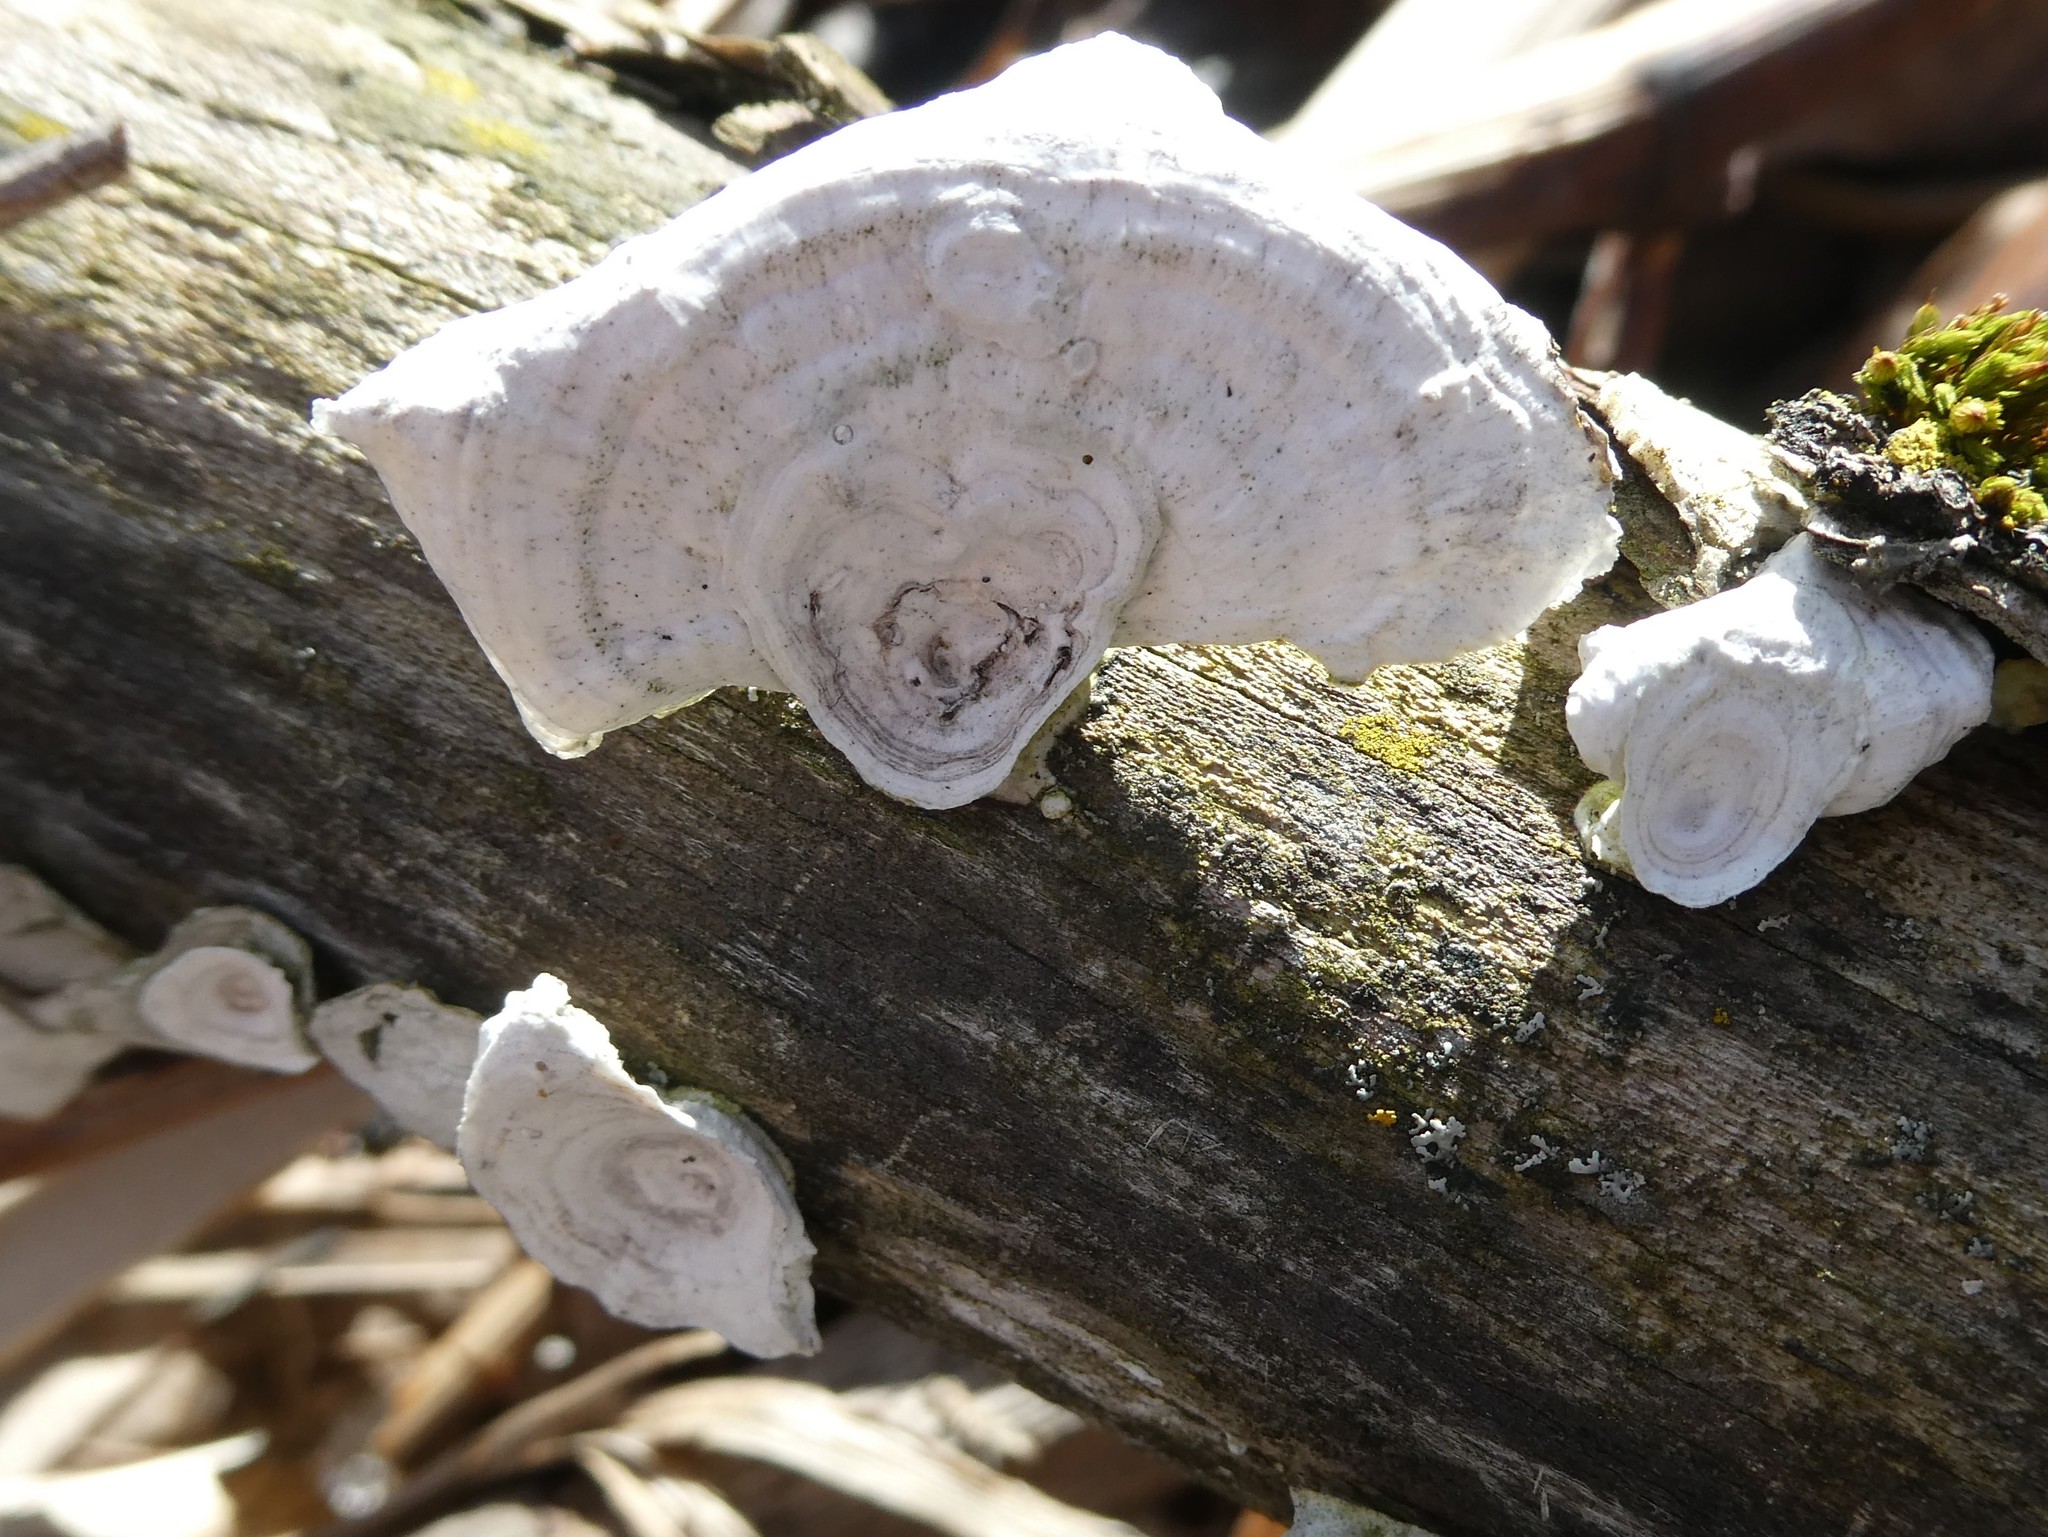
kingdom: Fungi
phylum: Basidiomycota
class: Agaricomycetes
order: Polyporales
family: Polyporaceae
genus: Poronidulus
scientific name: Poronidulus conchifer
